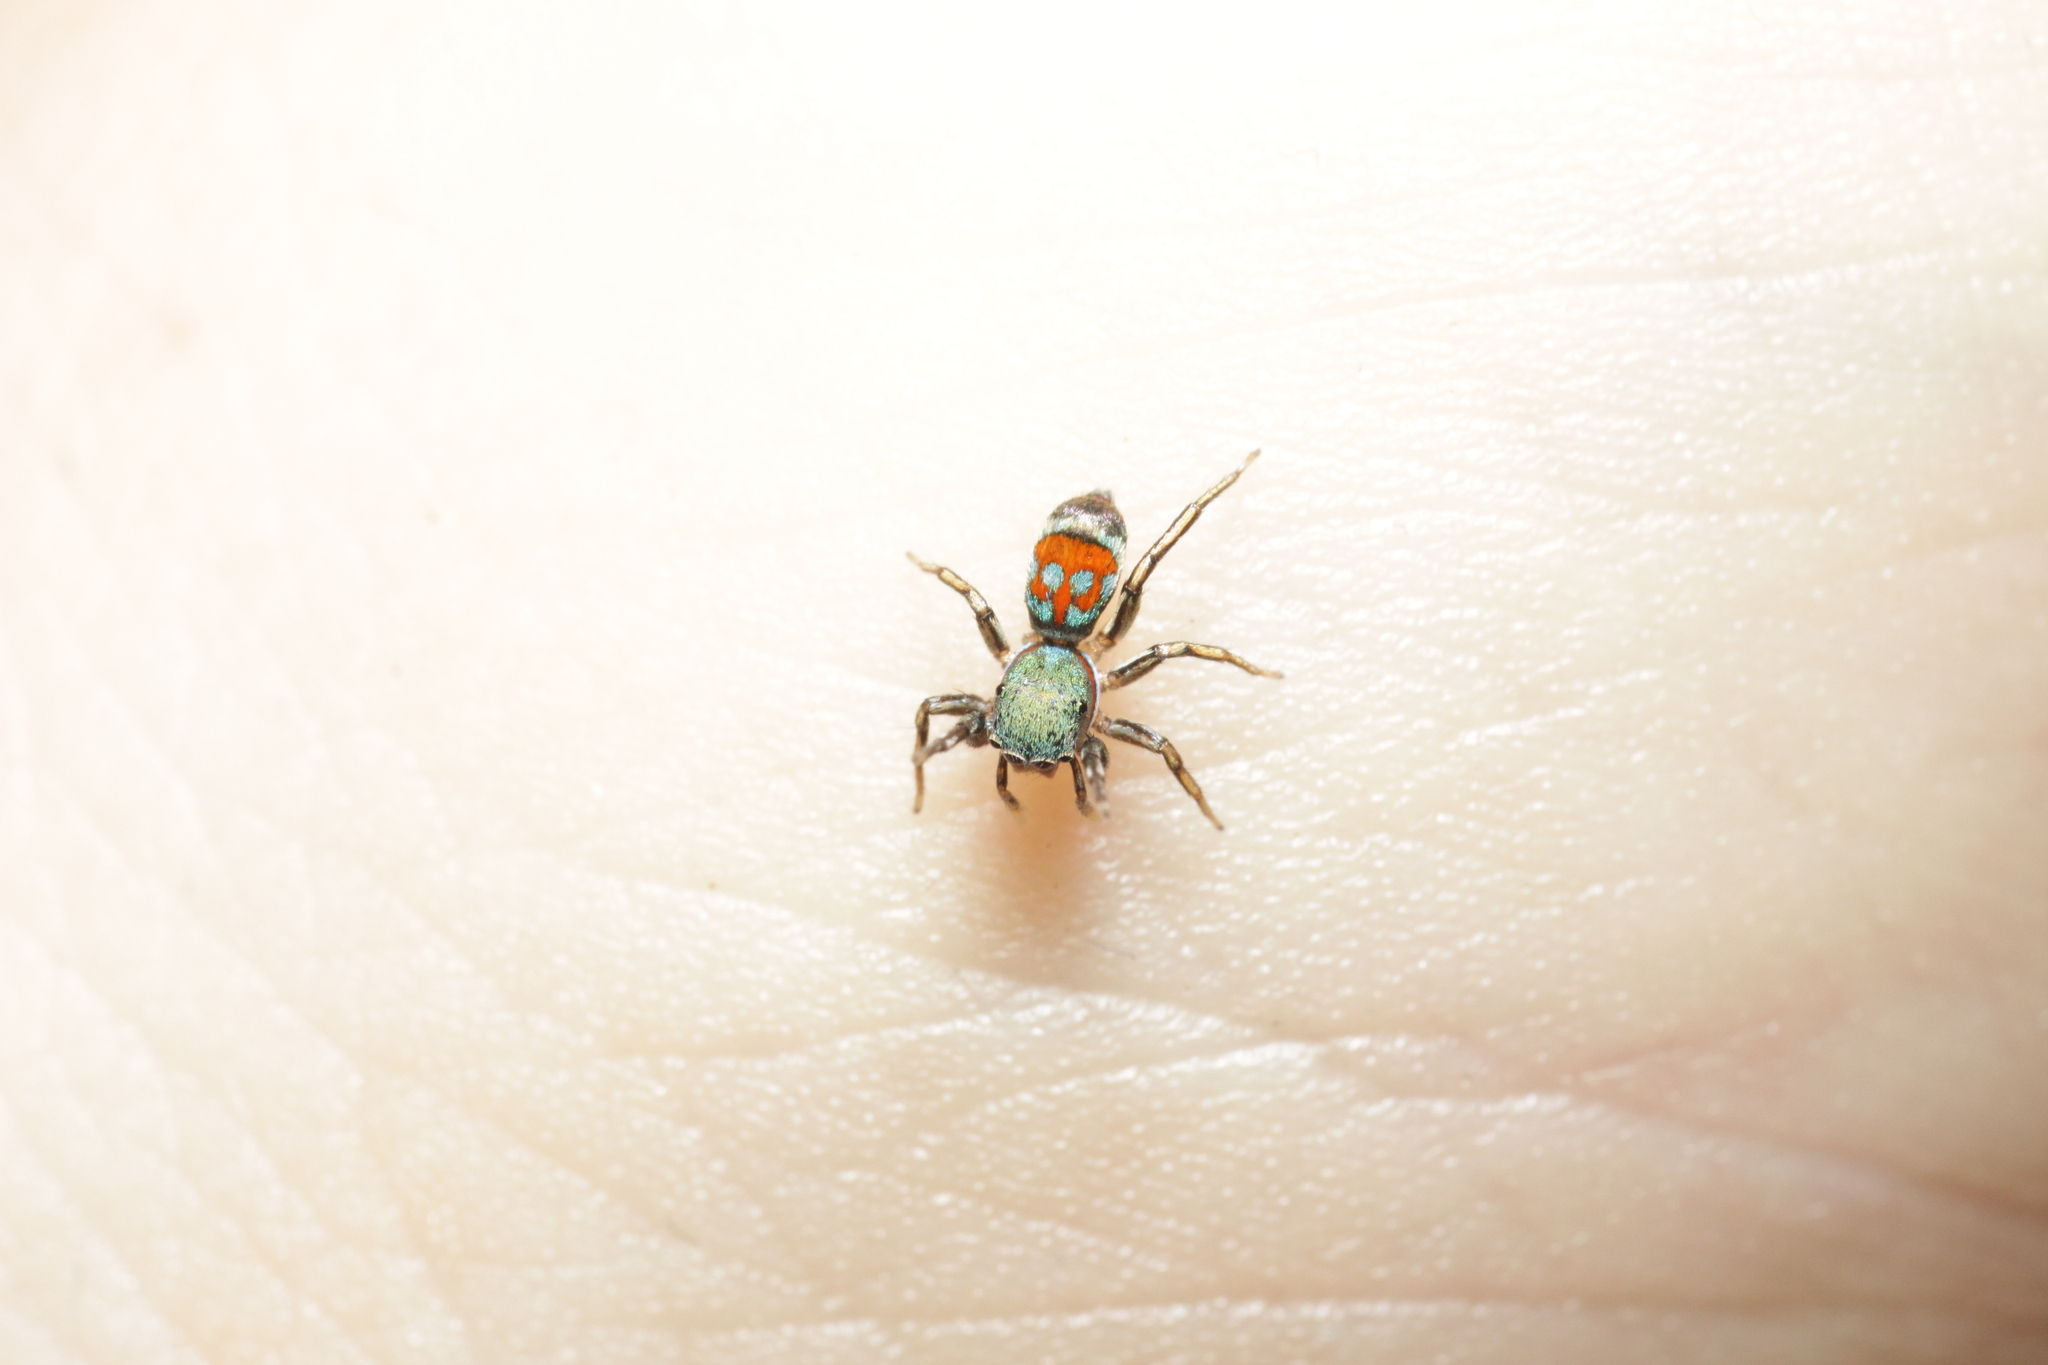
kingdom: Animalia
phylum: Arthropoda
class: Arachnida
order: Araneae
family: Salticidae
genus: Siler
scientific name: Siler semiglaucus
